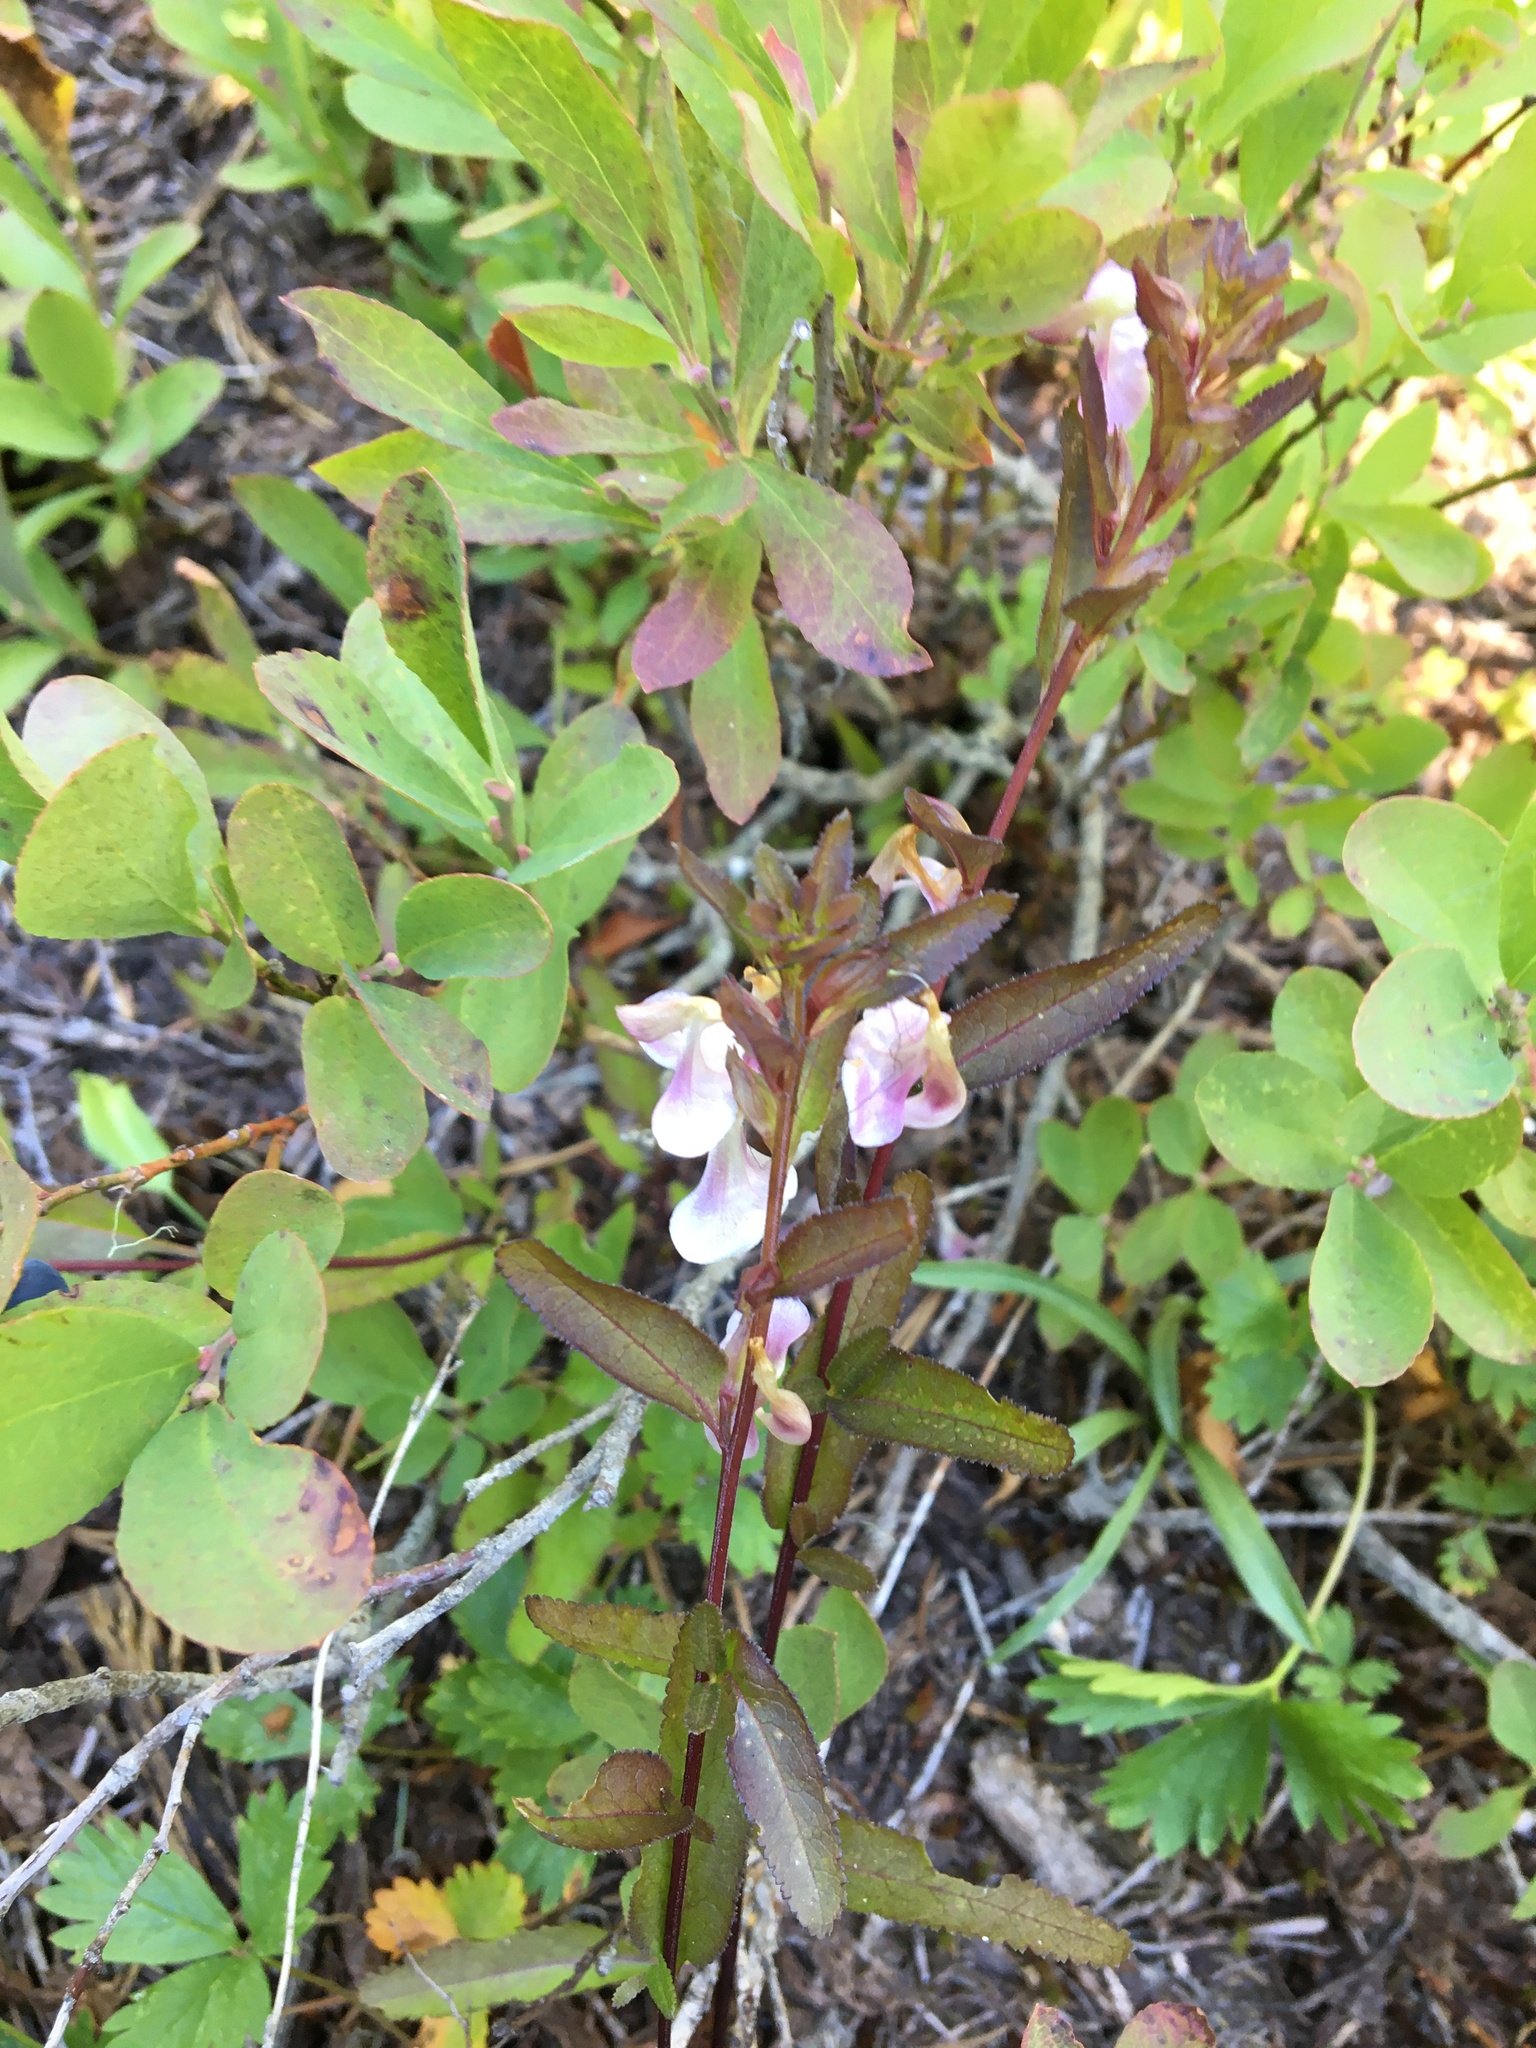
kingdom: Plantae
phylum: Tracheophyta
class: Magnoliopsida
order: Lamiales
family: Orobanchaceae
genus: Pedicularis
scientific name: Pedicularis racemosa
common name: Leafy lousewort
